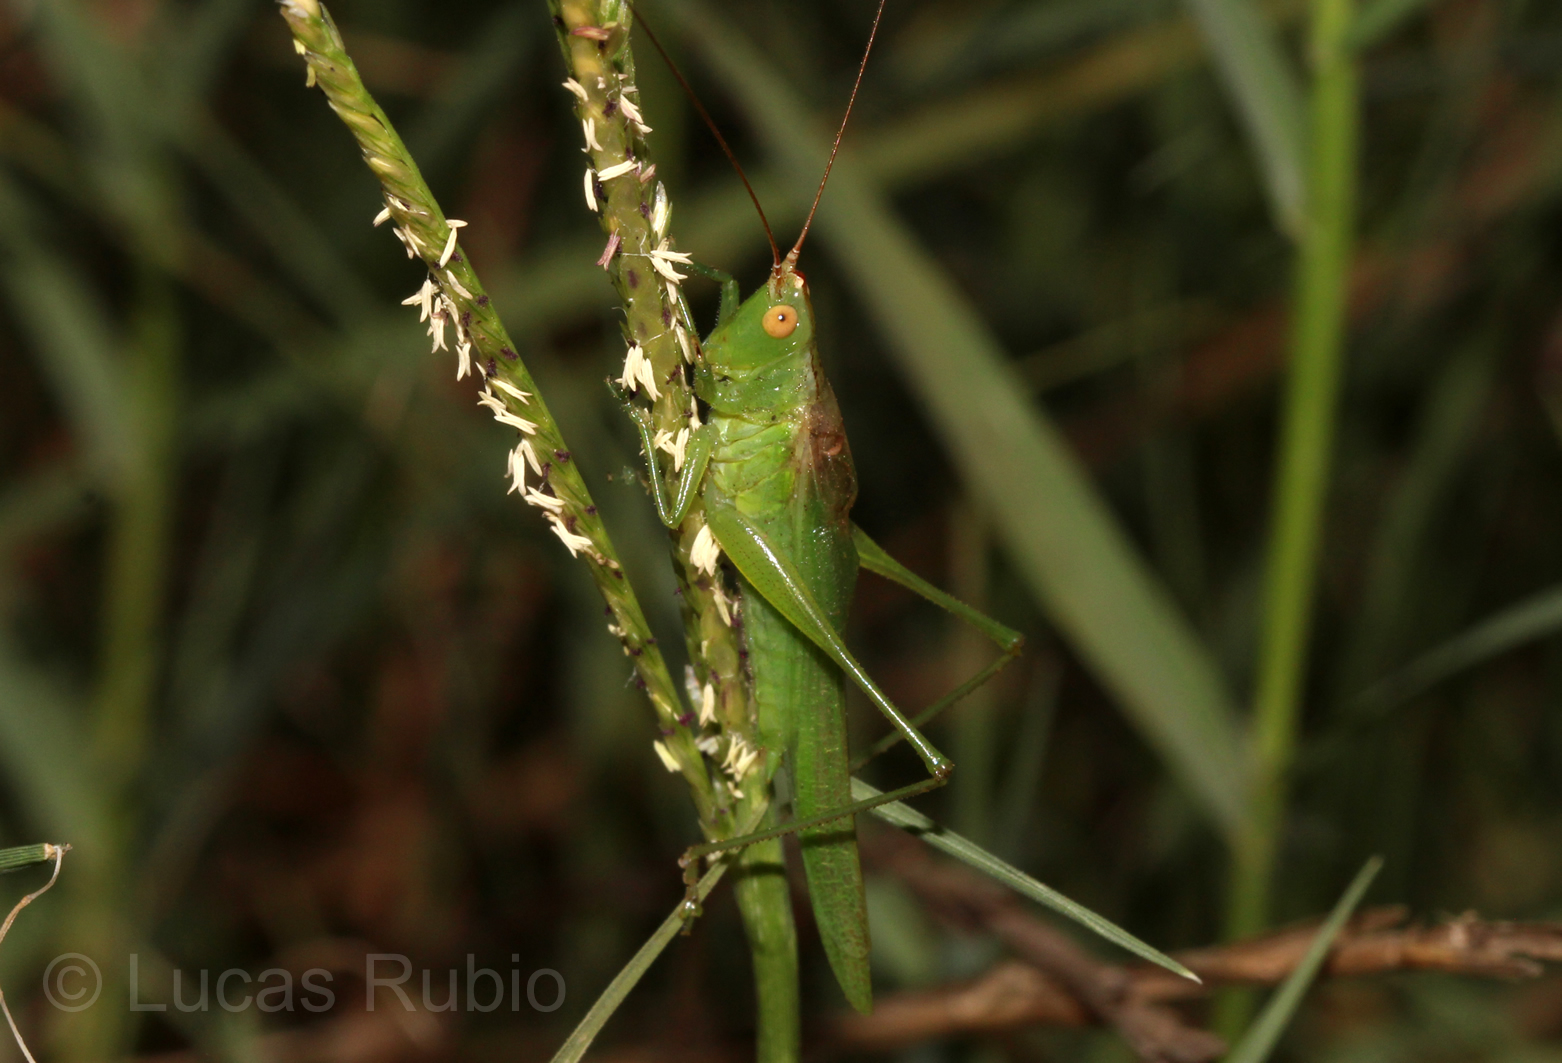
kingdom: Animalia
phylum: Arthropoda
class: Insecta
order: Orthoptera
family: Tettigoniidae
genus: Conocephalus
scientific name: Conocephalus longipes
